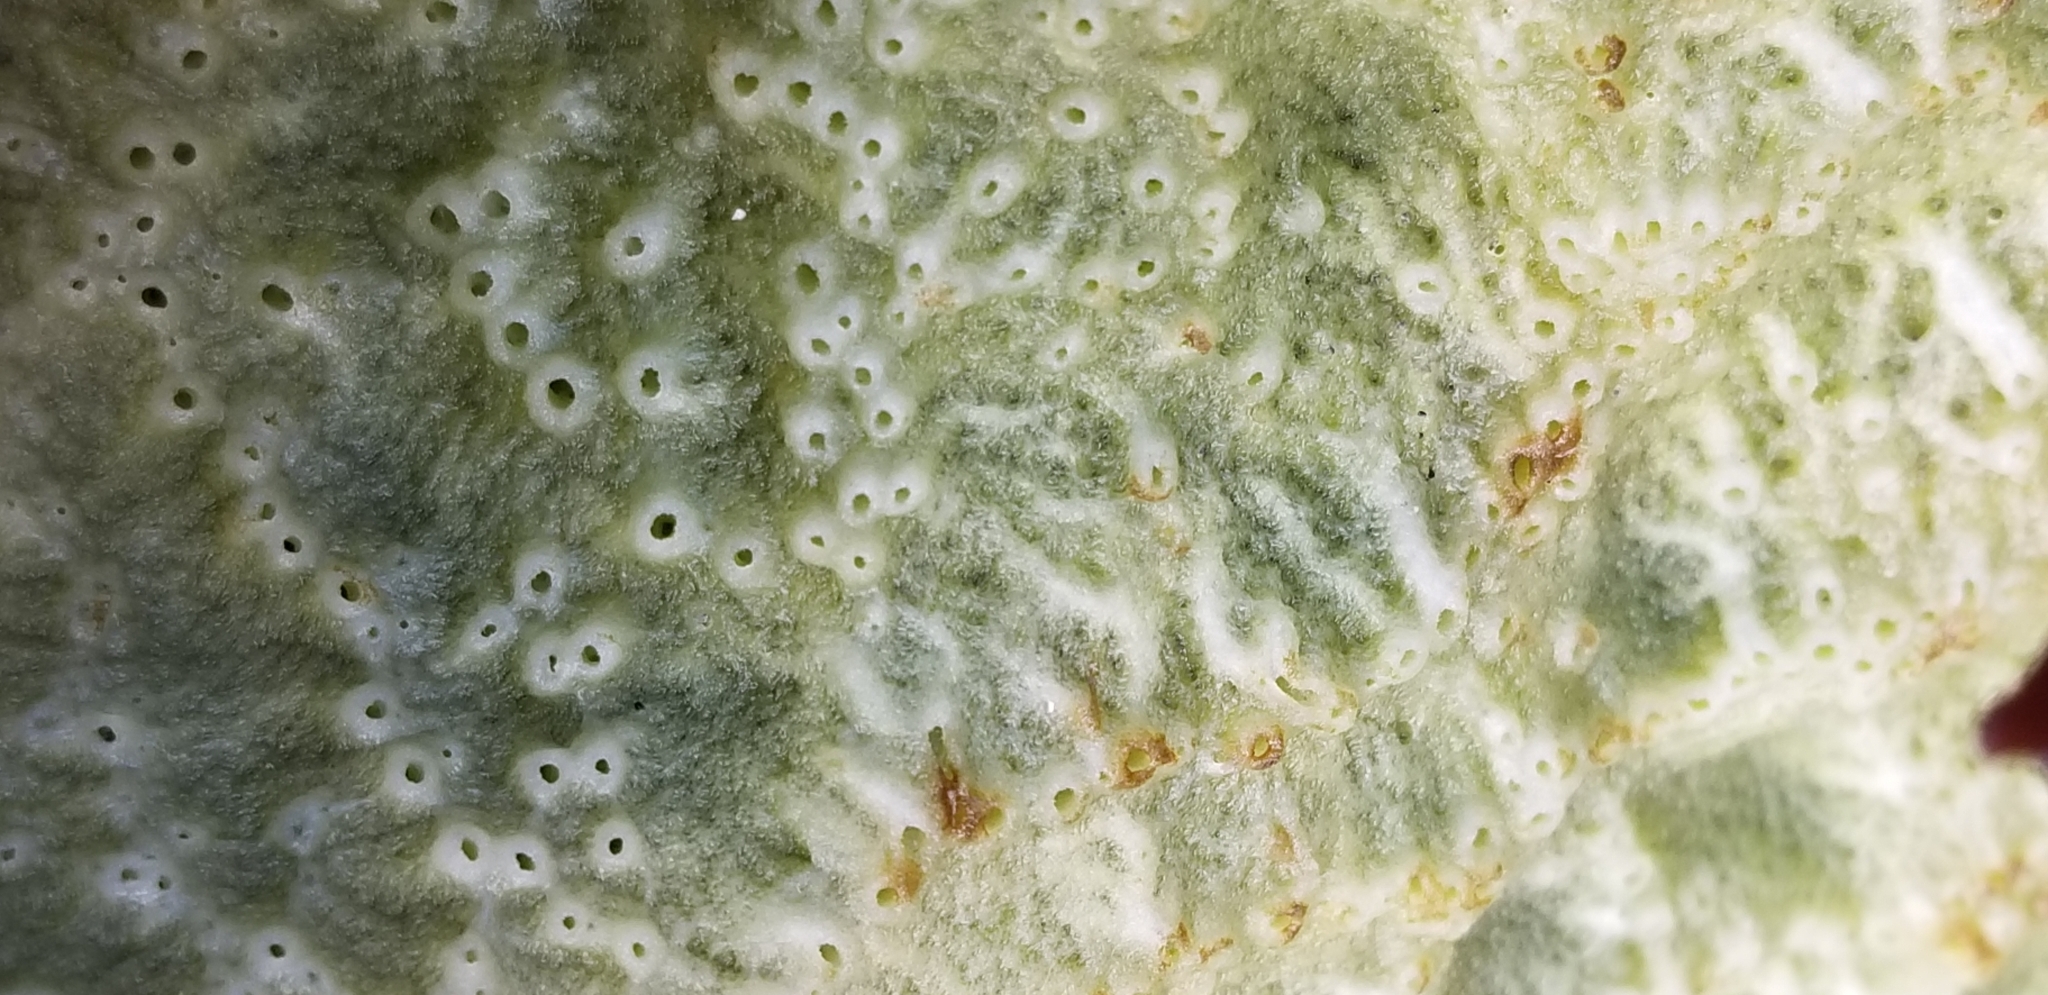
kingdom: Animalia
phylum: Porifera
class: Demospongiae
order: Suberitida
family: Halichondriidae
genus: Halichondria
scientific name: Halichondria panicea
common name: Breadcrumb sponge
